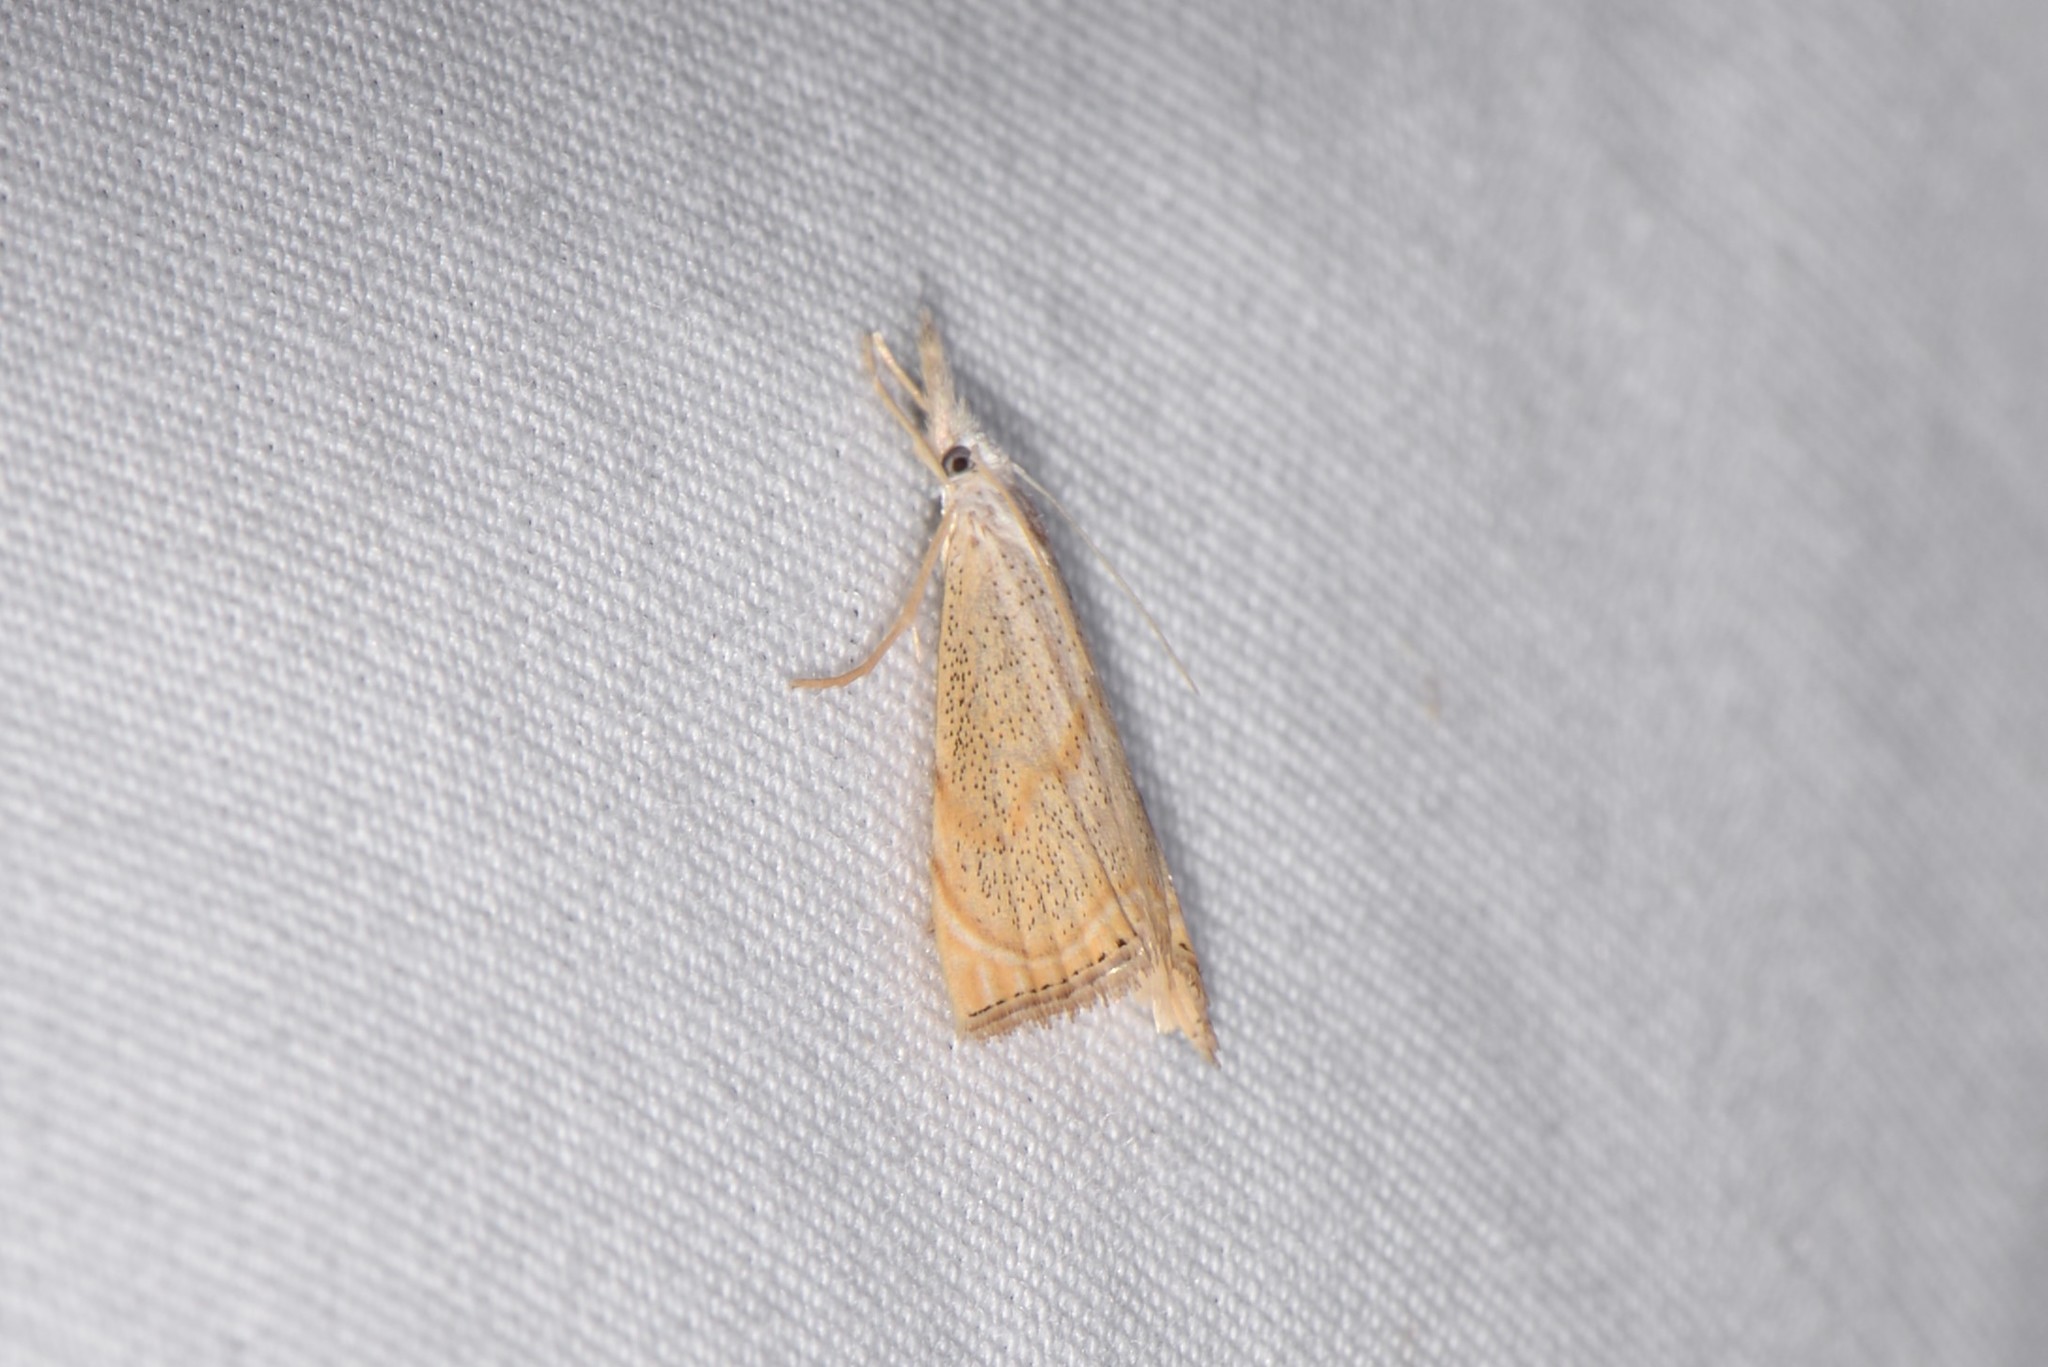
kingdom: Animalia
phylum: Arthropoda
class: Insecta
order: Lepidoptera
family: Crambidae
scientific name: Crambidae
